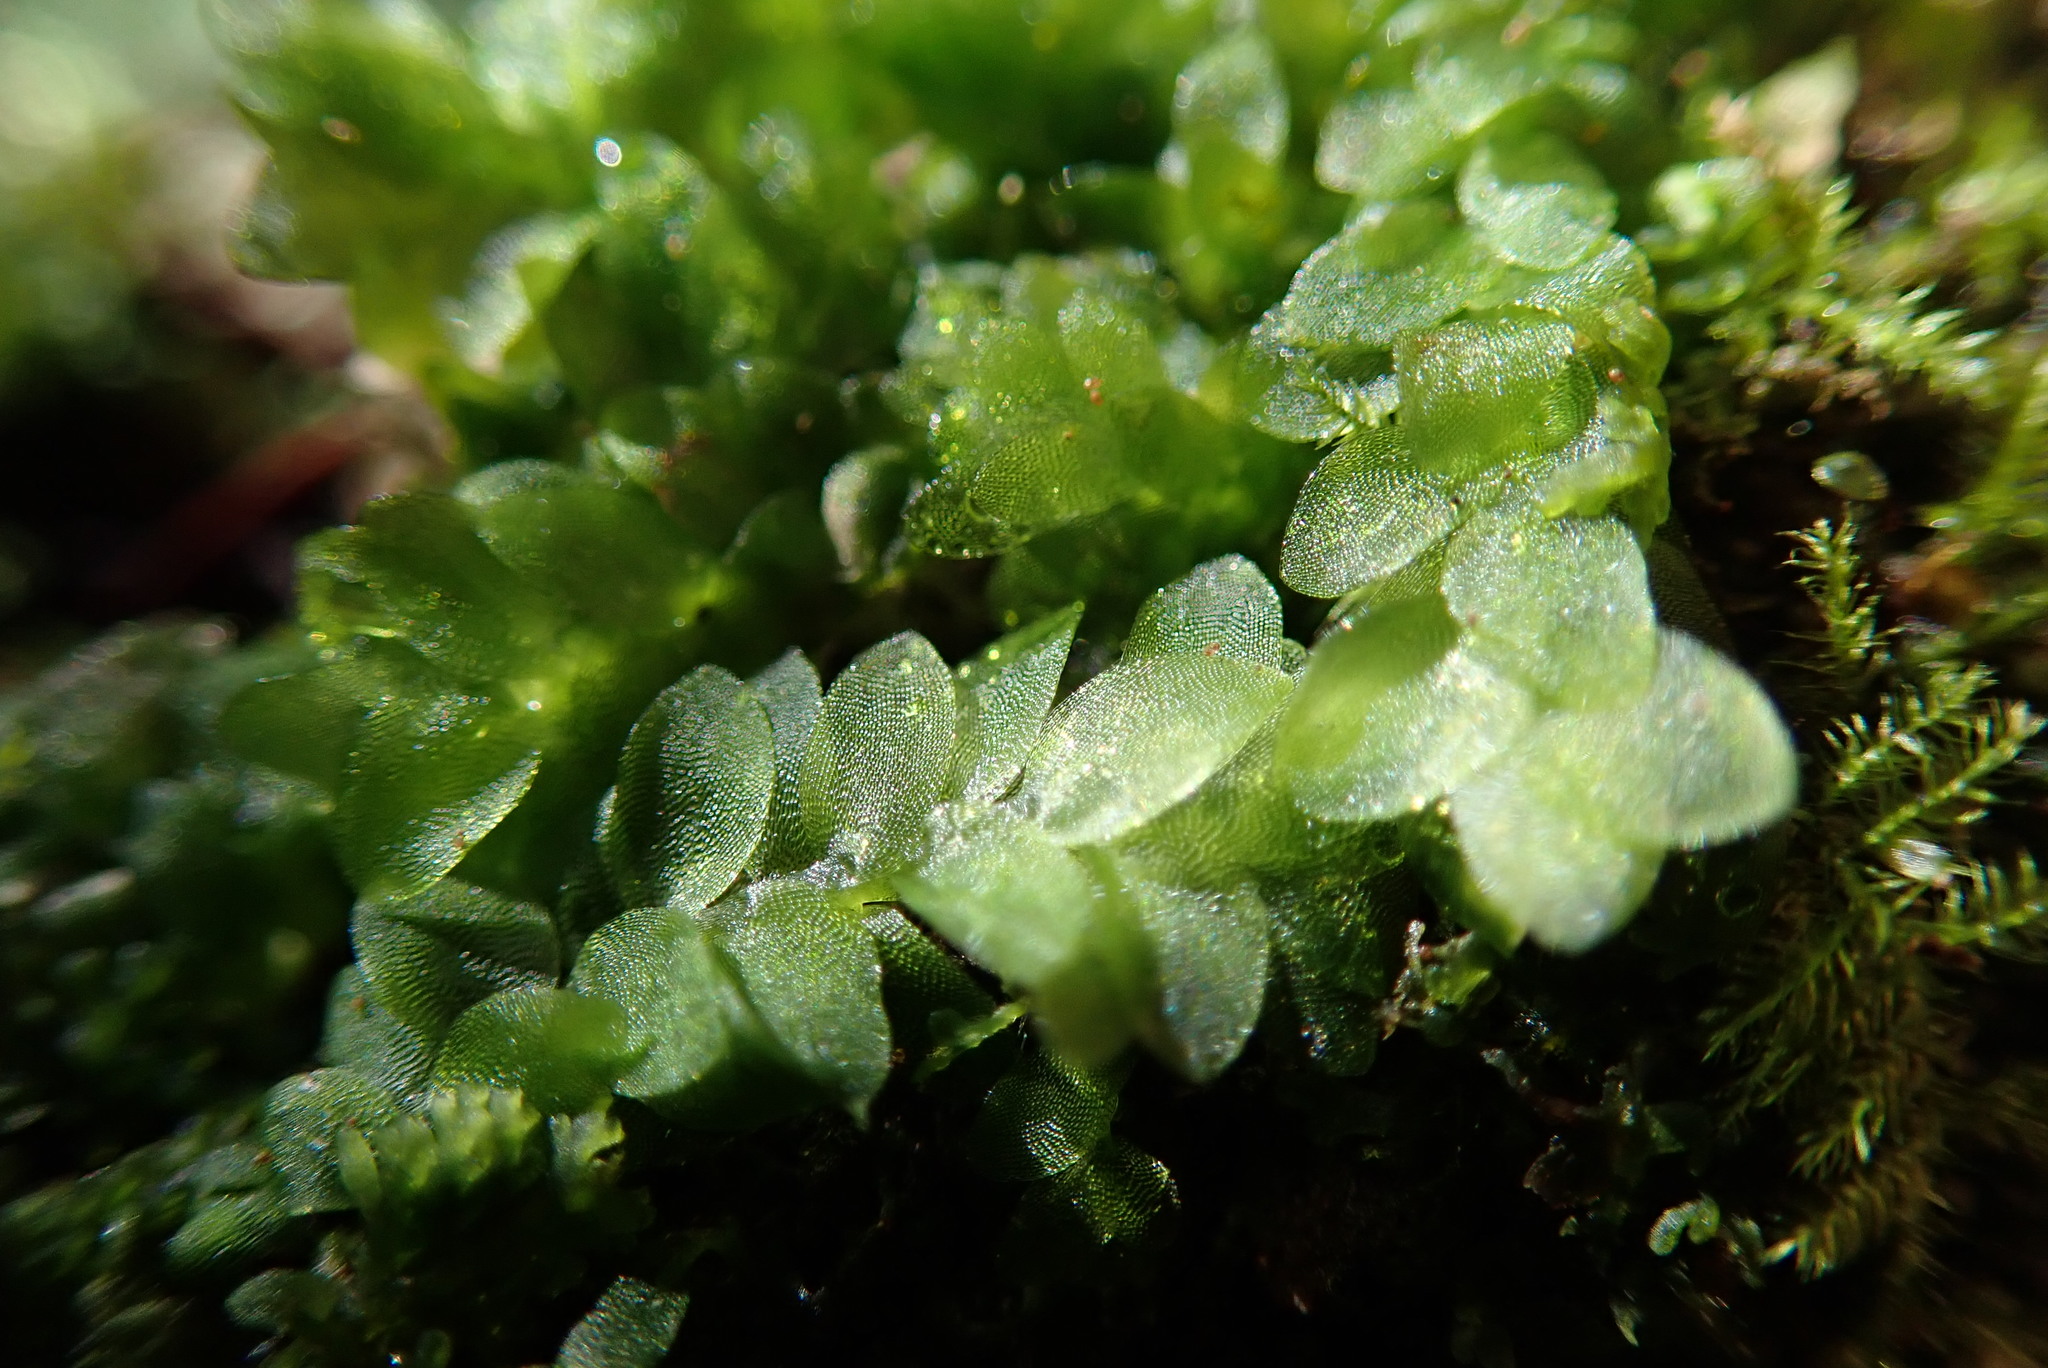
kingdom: Plantae
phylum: Bryophyta
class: Bryopsida
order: Hookeriales
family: Hookeriaceae
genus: Hookeria
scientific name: Hookeria lucens
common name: Shining hookeria
